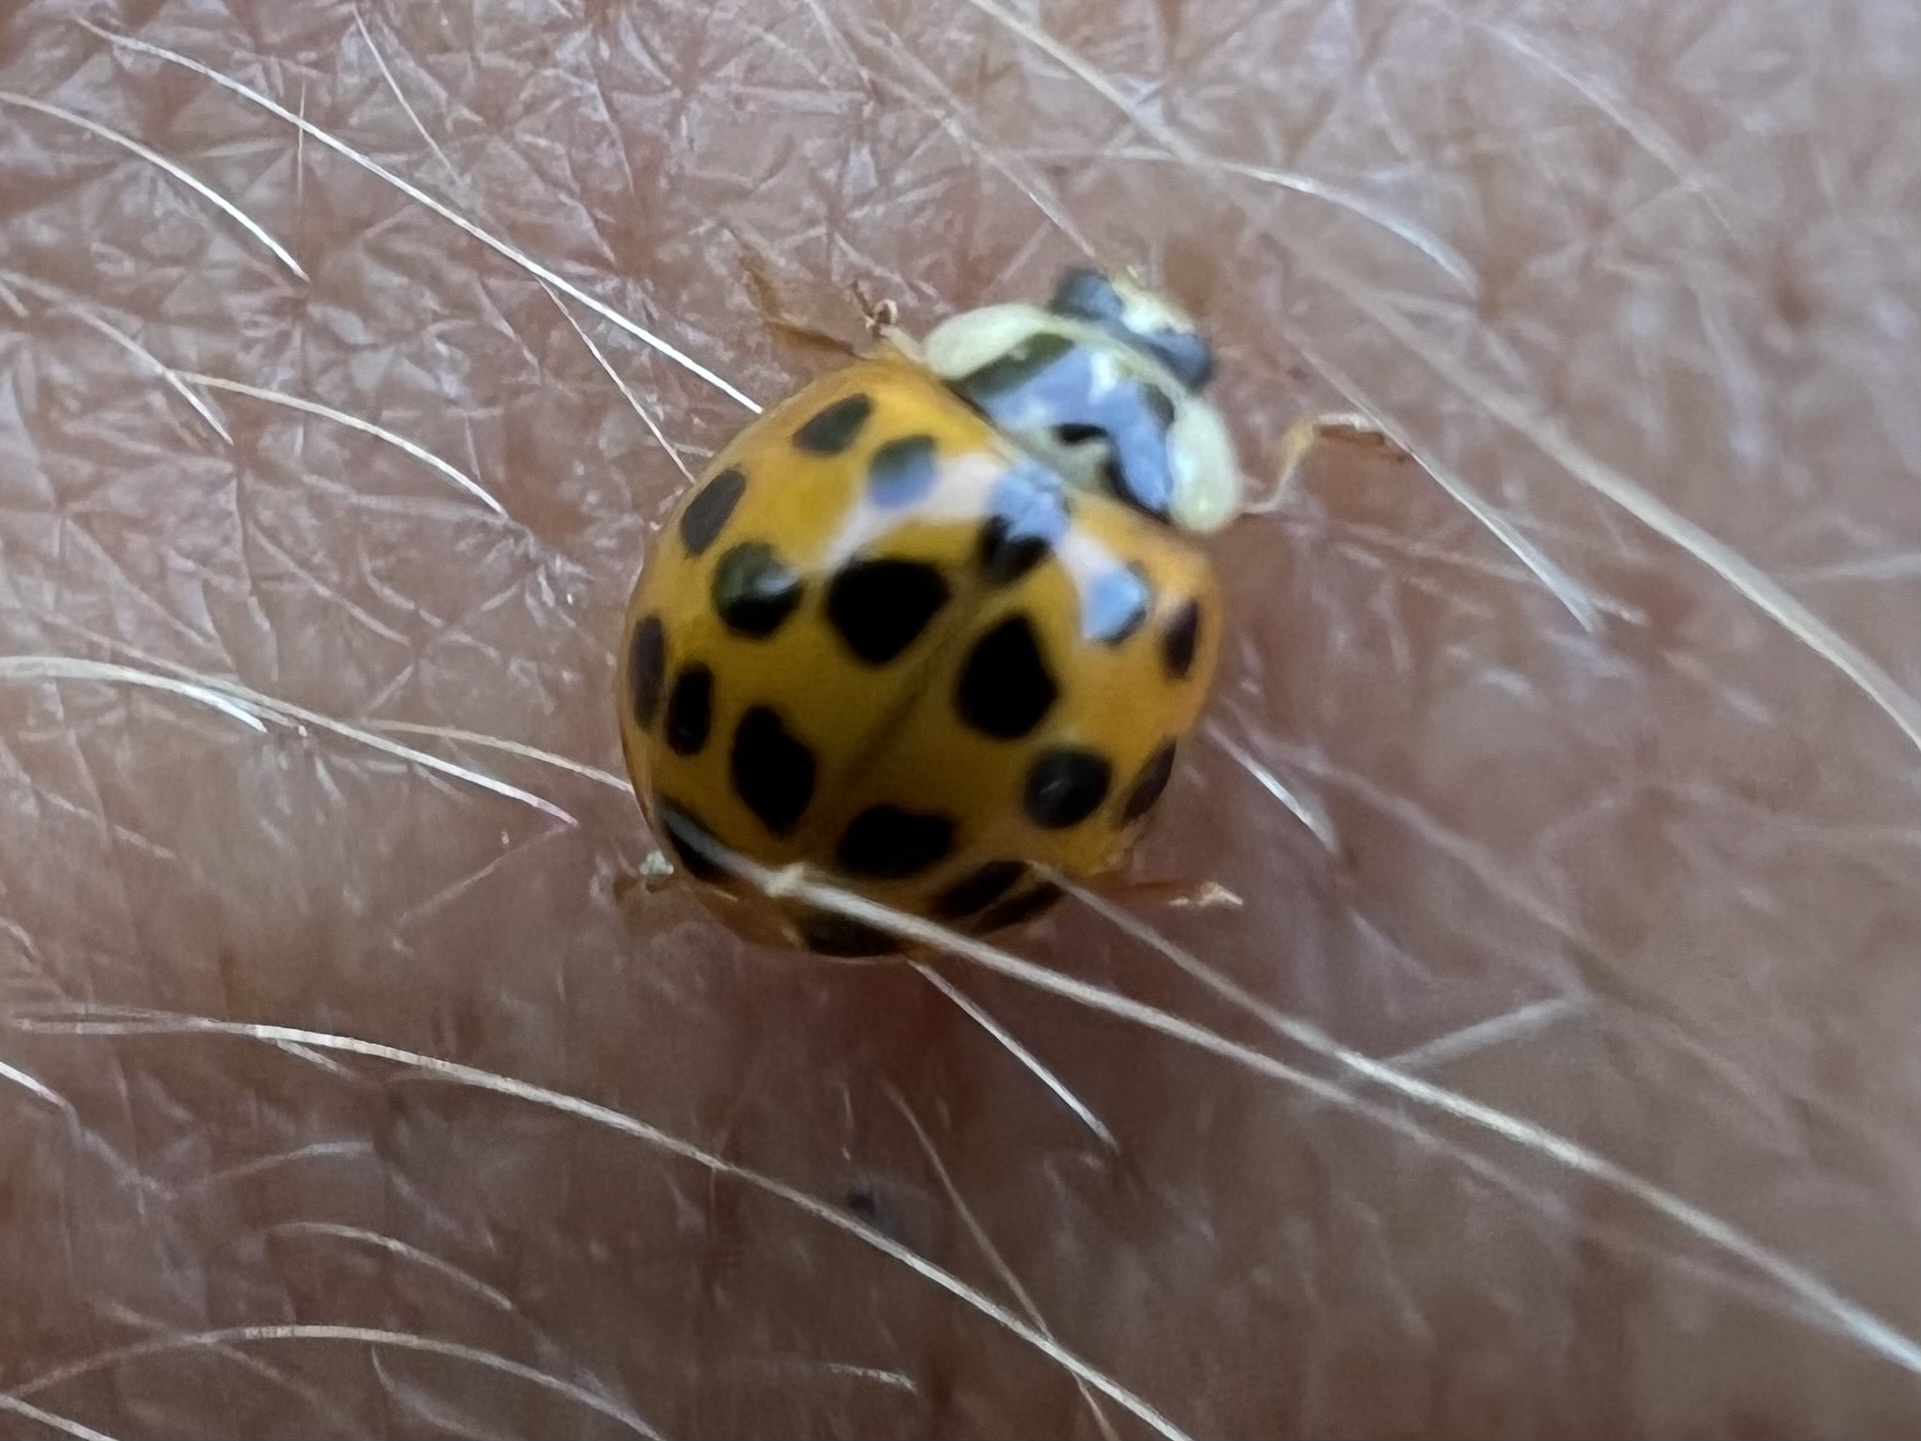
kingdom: Animalia
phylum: Arthropoda
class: Insecta
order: Coleoptera
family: Coccinellidae
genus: Harmonia
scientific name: Harmonia axyridis
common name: Harlequin ladybird
